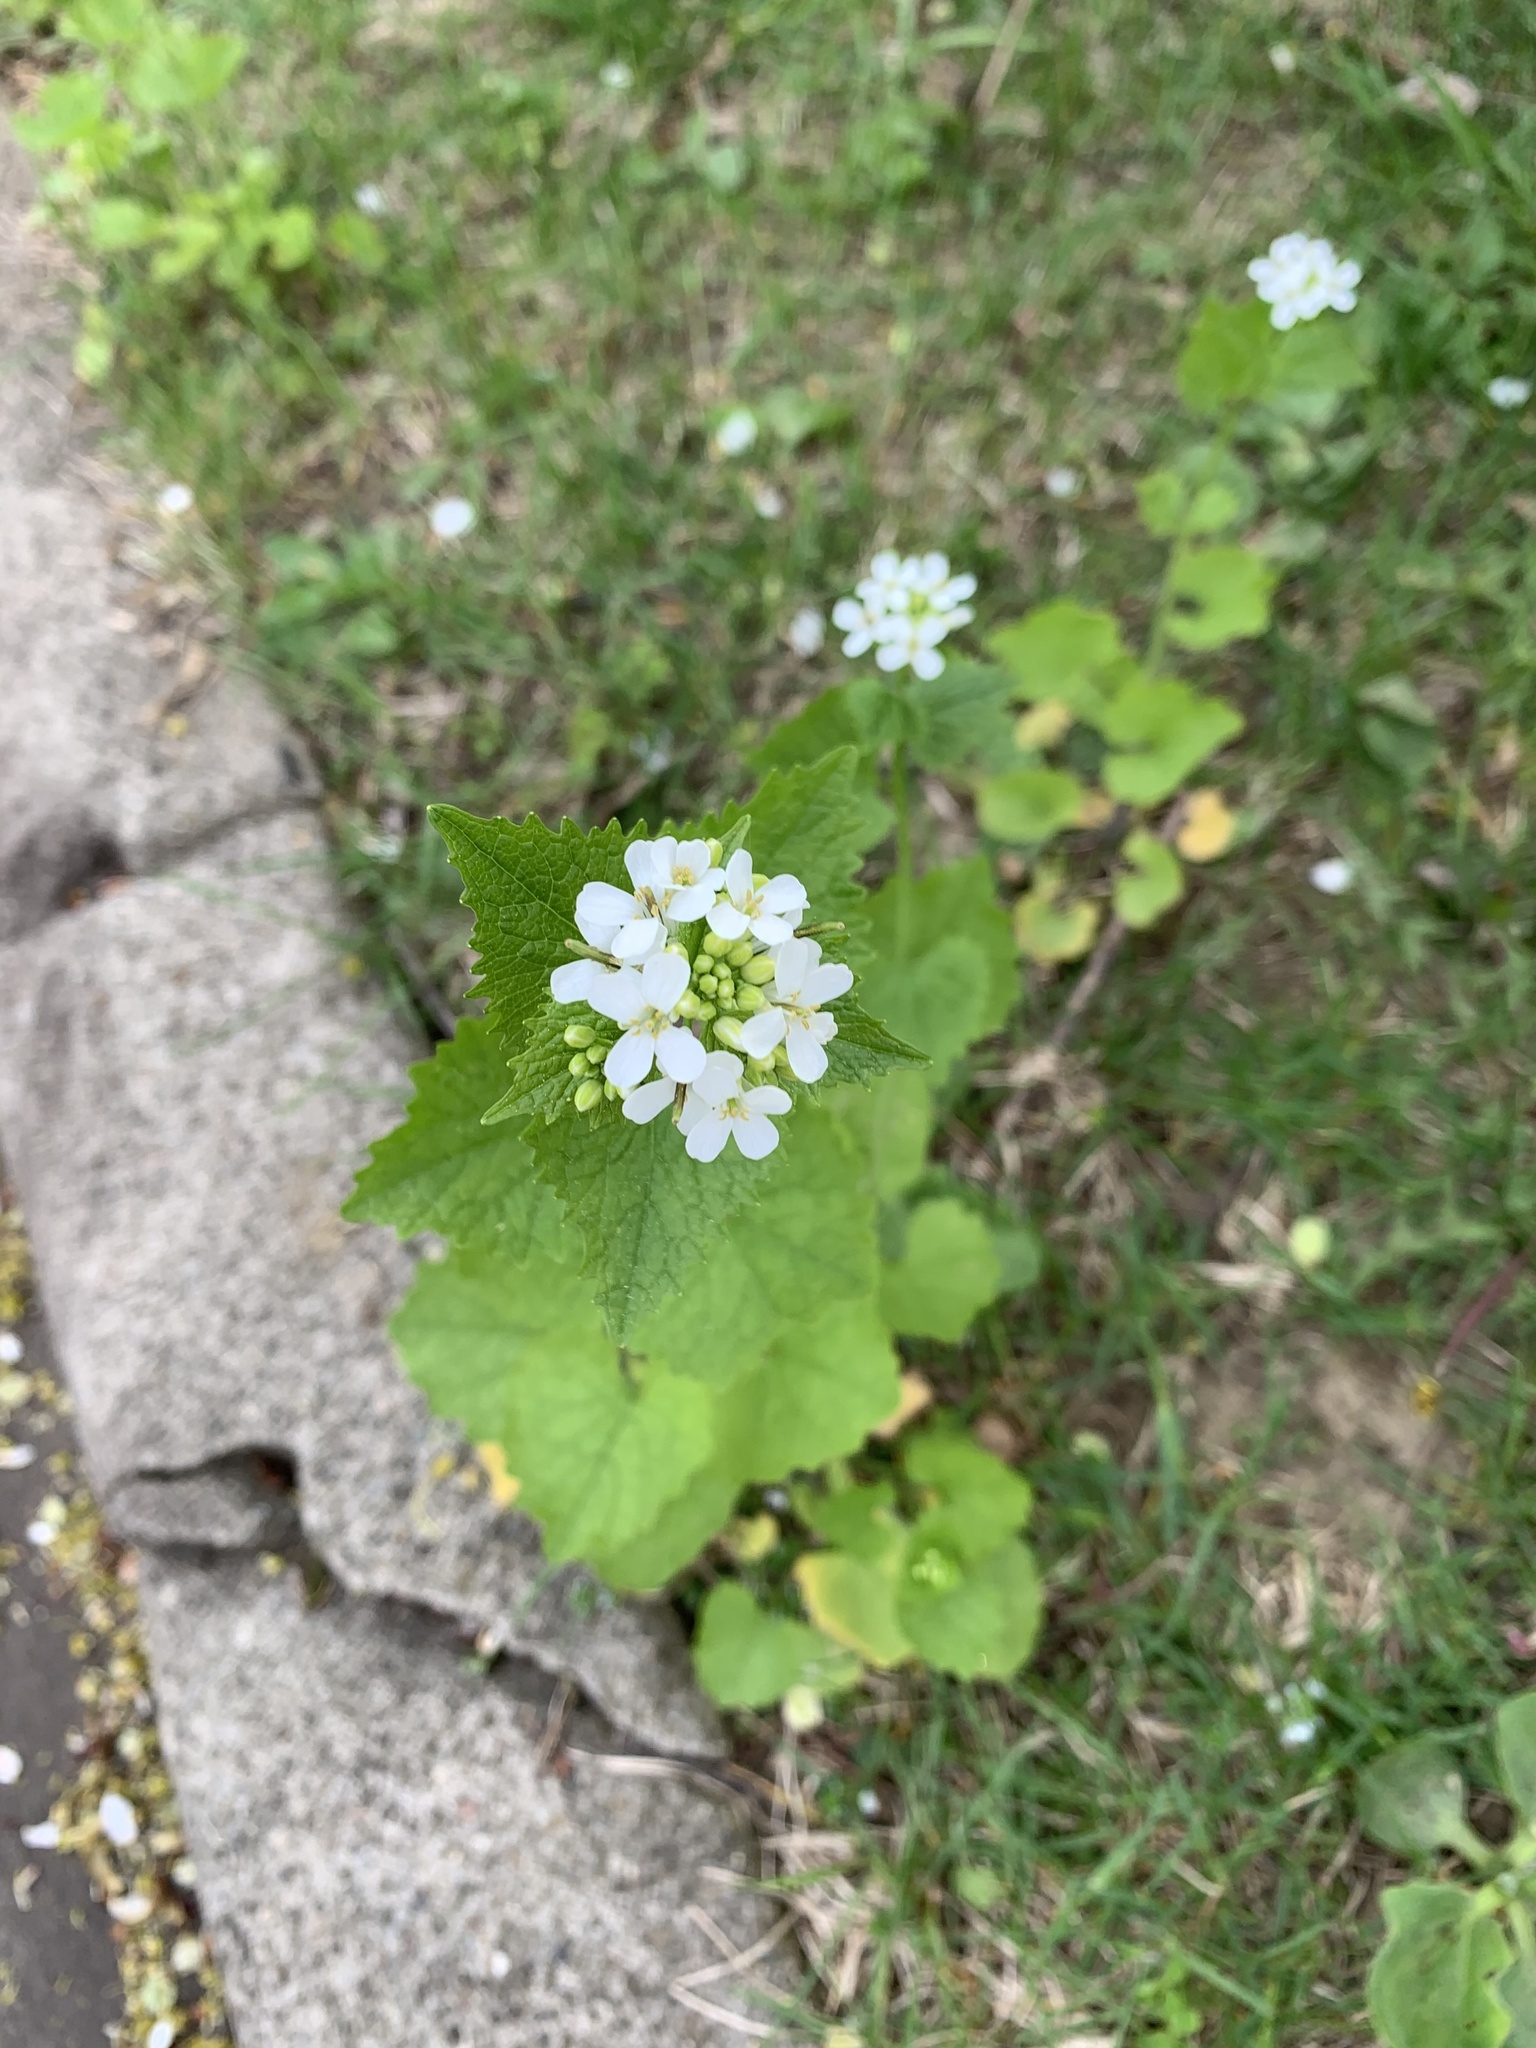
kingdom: Plantae
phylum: Tracheophyta
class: Magnoliopsida
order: Brassicales
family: Brassicaceae
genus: Alliaria
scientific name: Alliaria petiolata
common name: Garlic mustard
